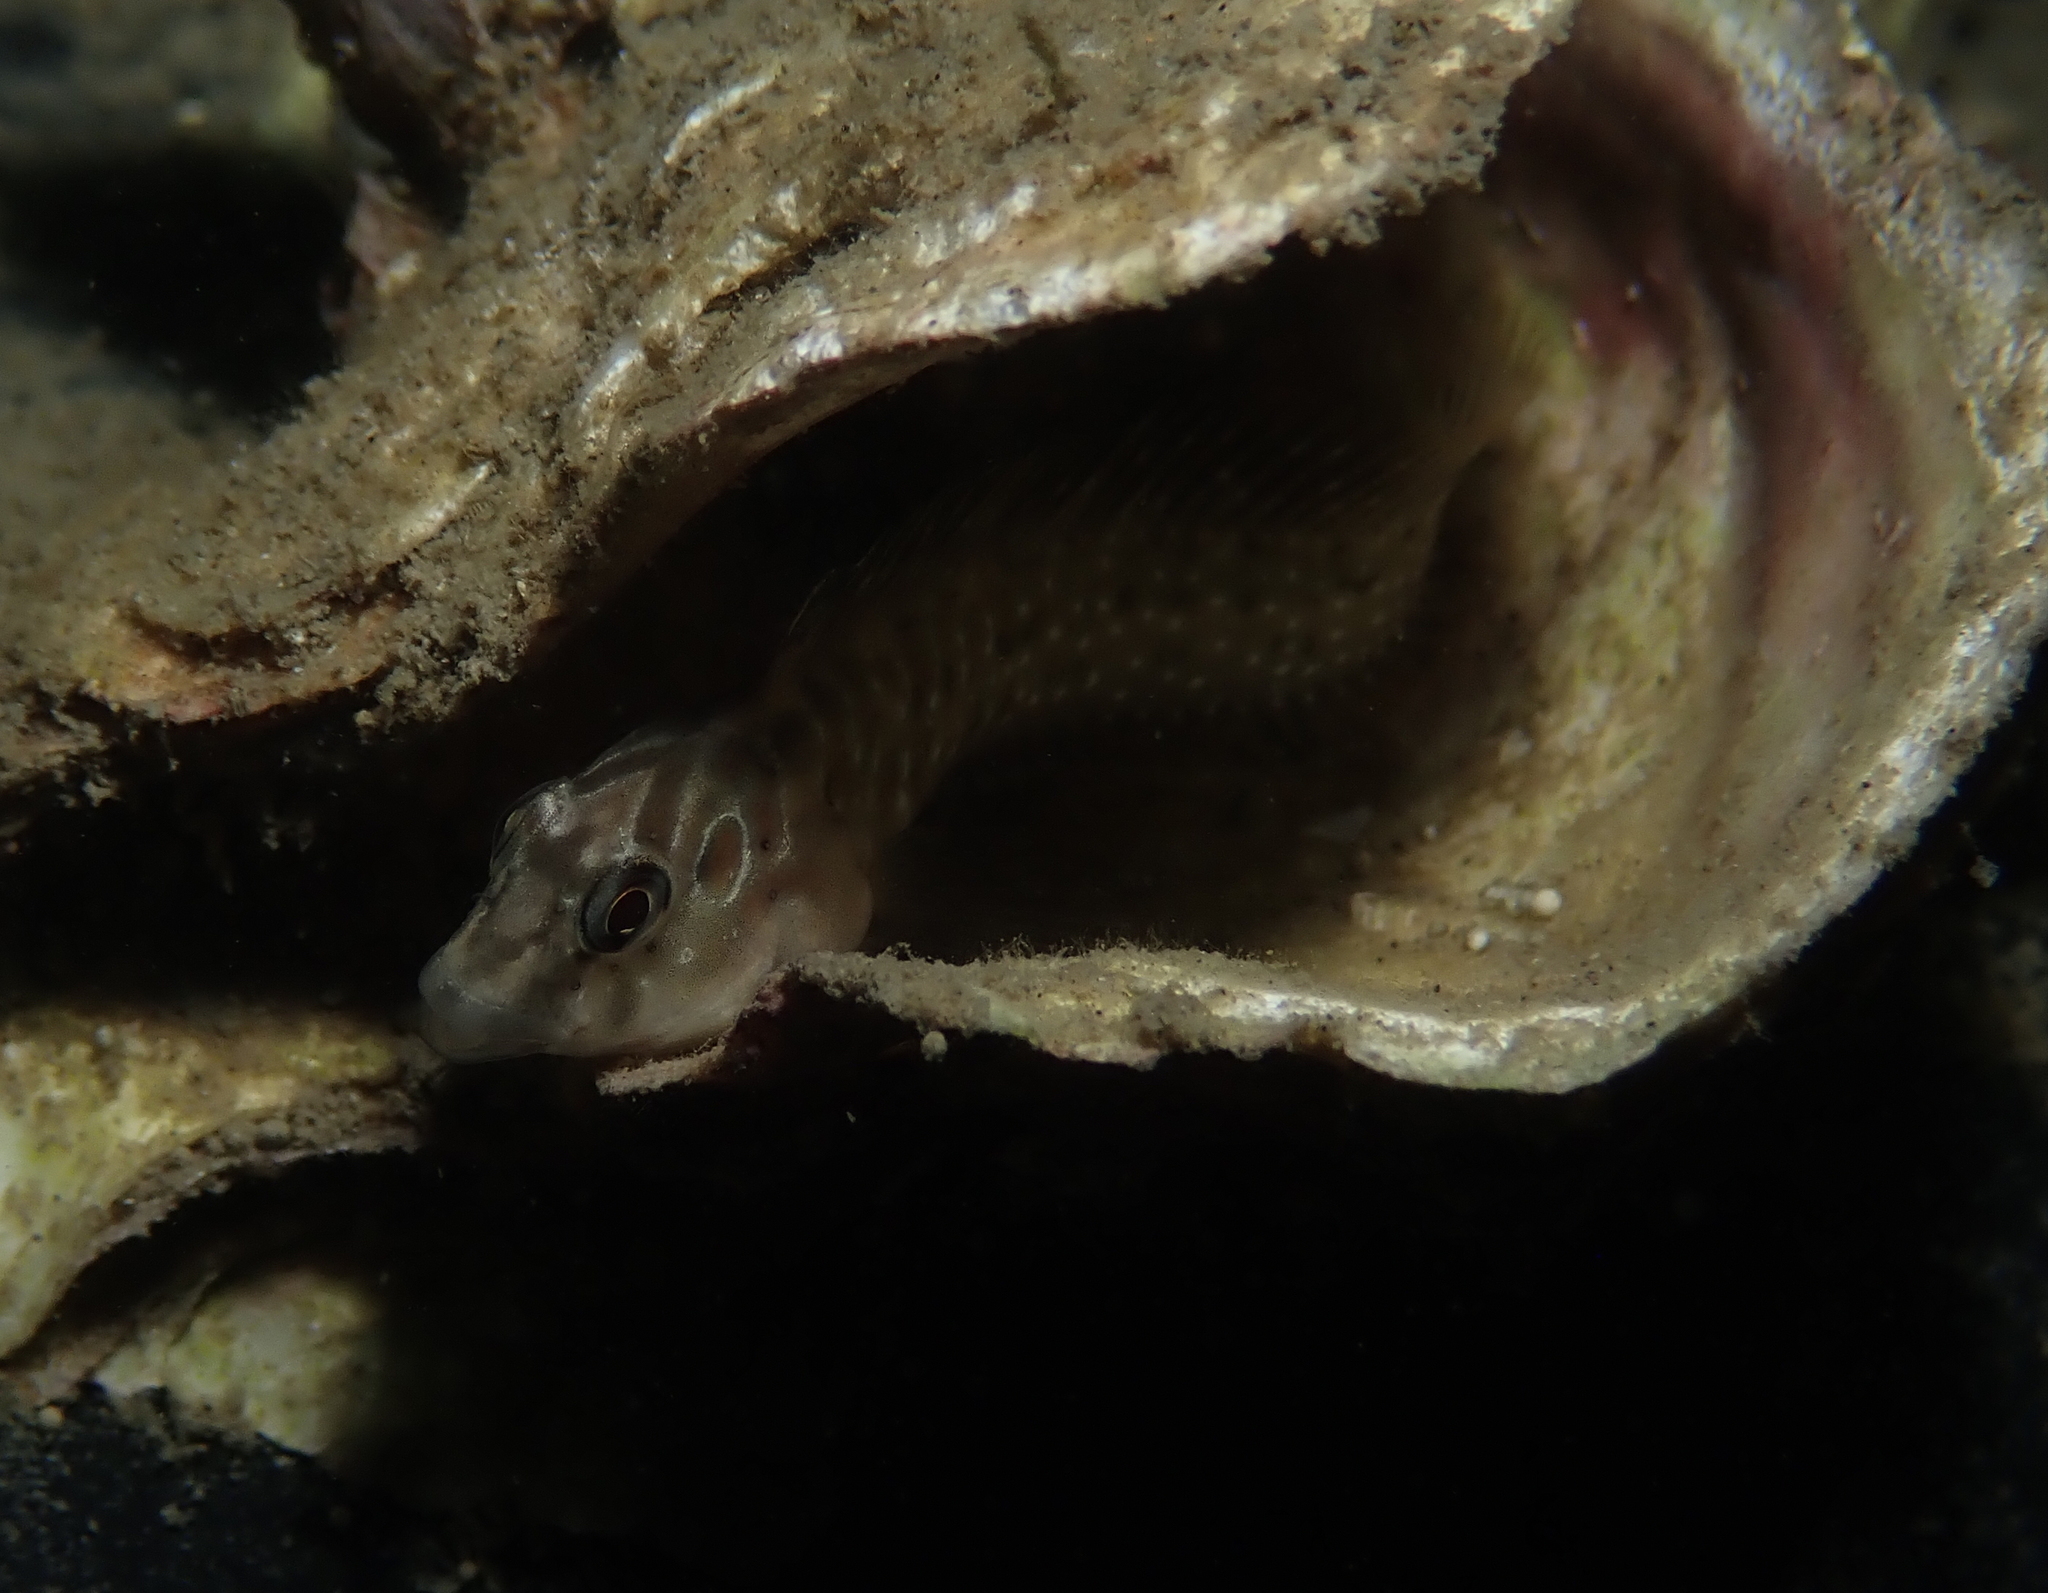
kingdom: Animalia
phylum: Chordata
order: Perciformes
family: Blenniidae
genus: Salaria
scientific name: Salaria pavo
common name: Peacock blenny
